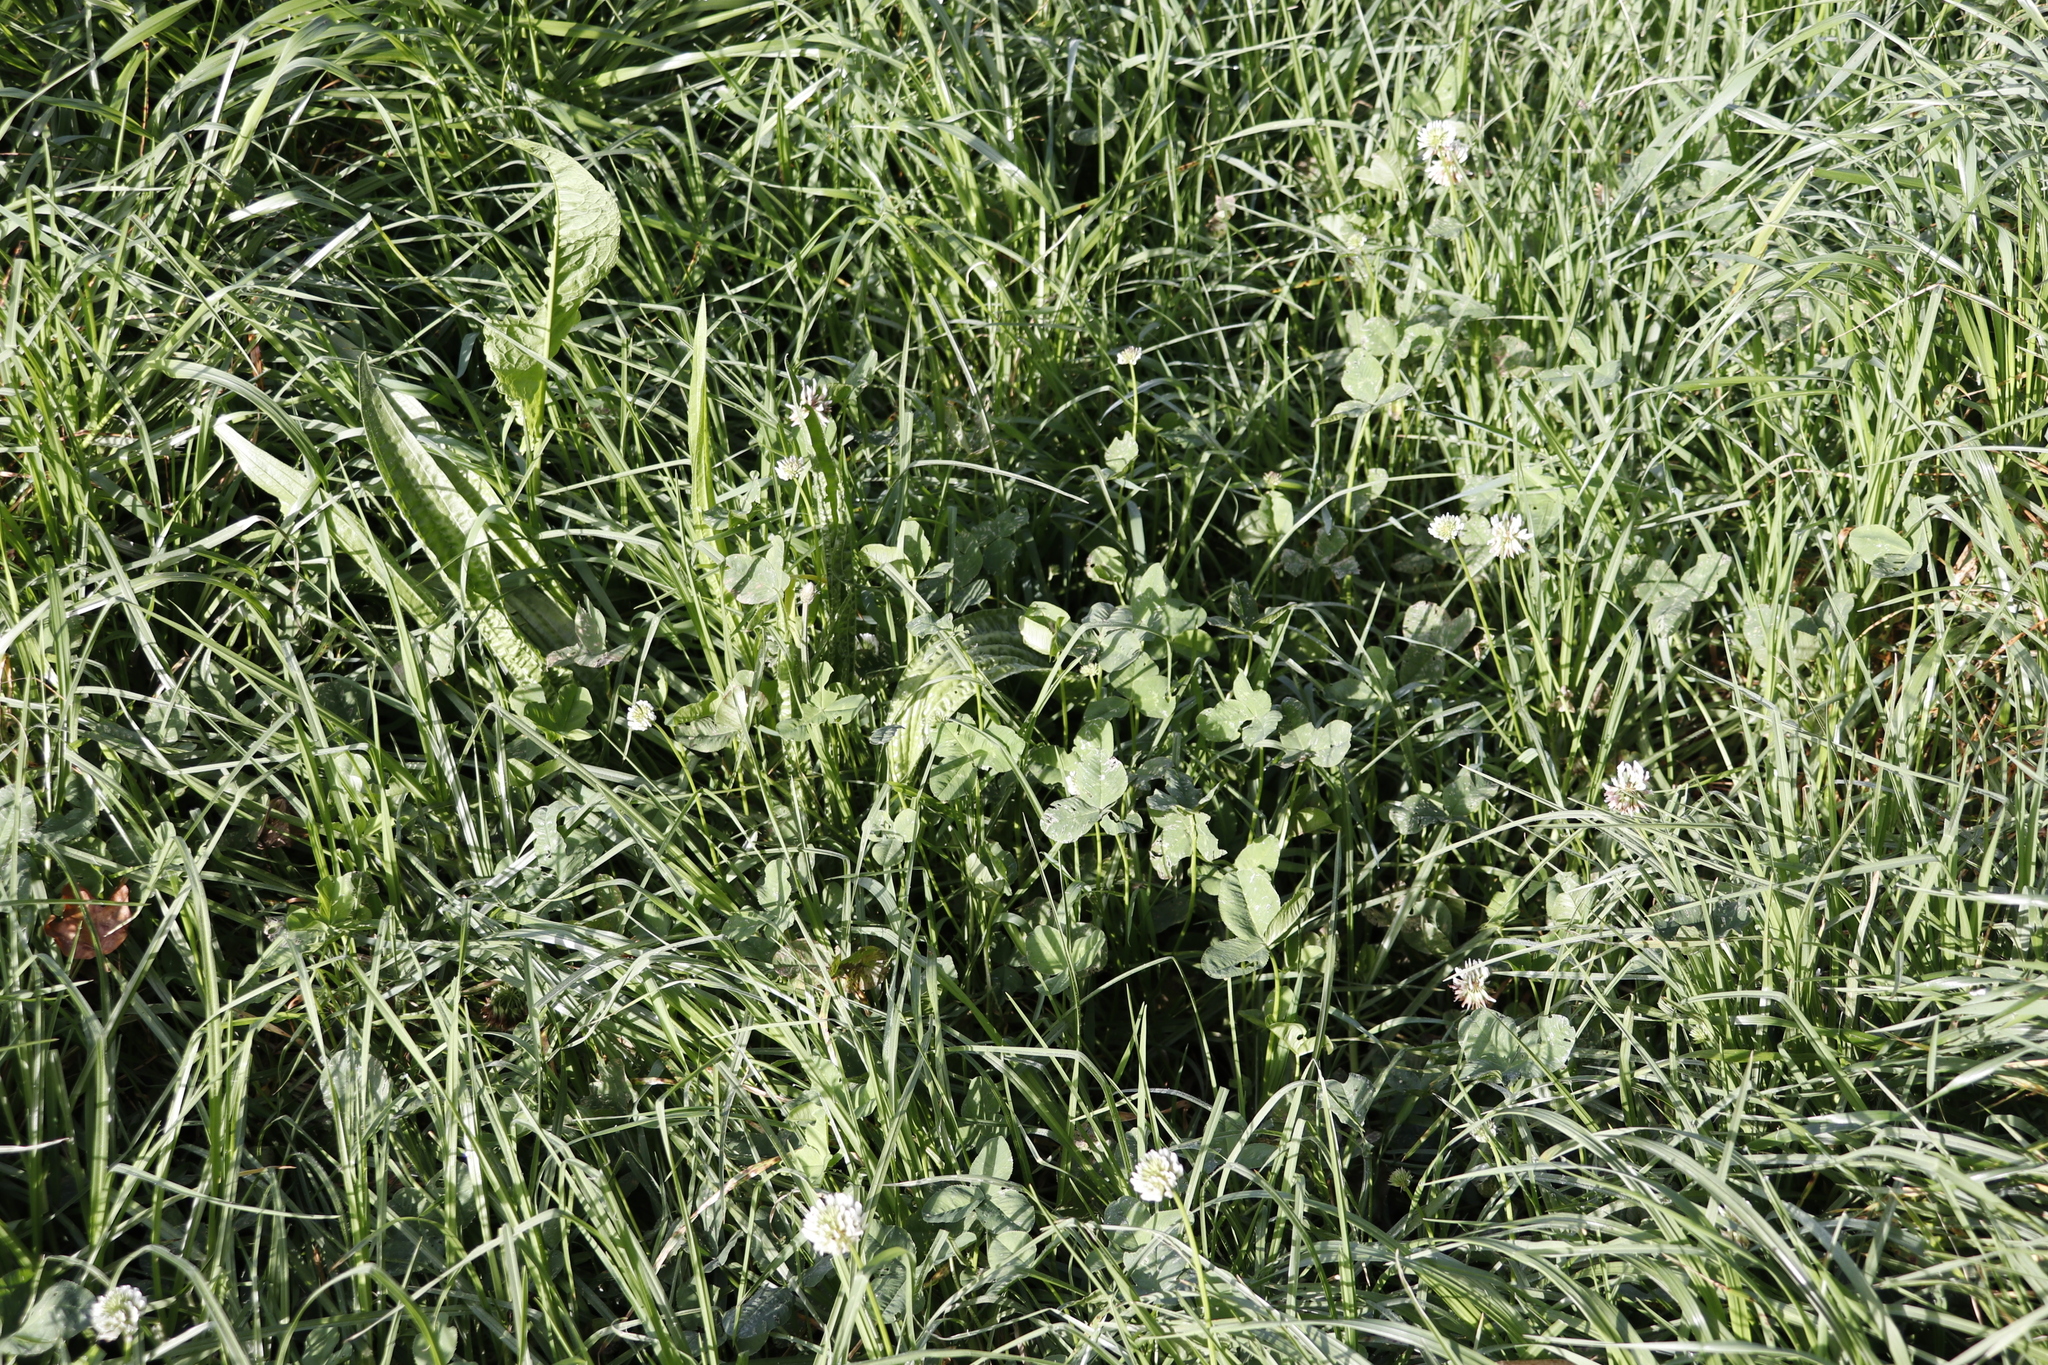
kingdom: Plantae
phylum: Tracheophyta
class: Magnoliopsida
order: Fabales
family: Fabaceae
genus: Trifolium
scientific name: Trifolium repens
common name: White clover
